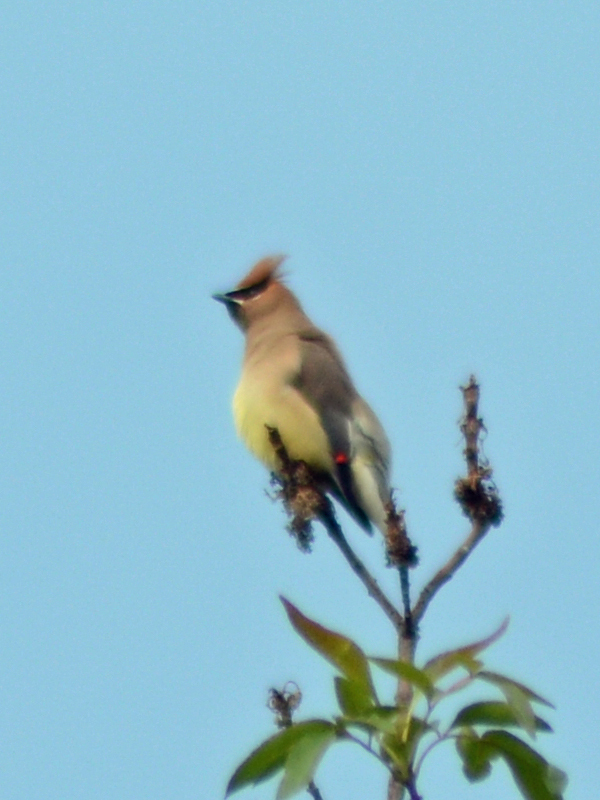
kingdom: Animalia
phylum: Chordata
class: Aves
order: Passeriformes
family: Bombycillidae
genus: Bombycilla
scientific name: Bombycilla cedrorum
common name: Cedar waxwing
